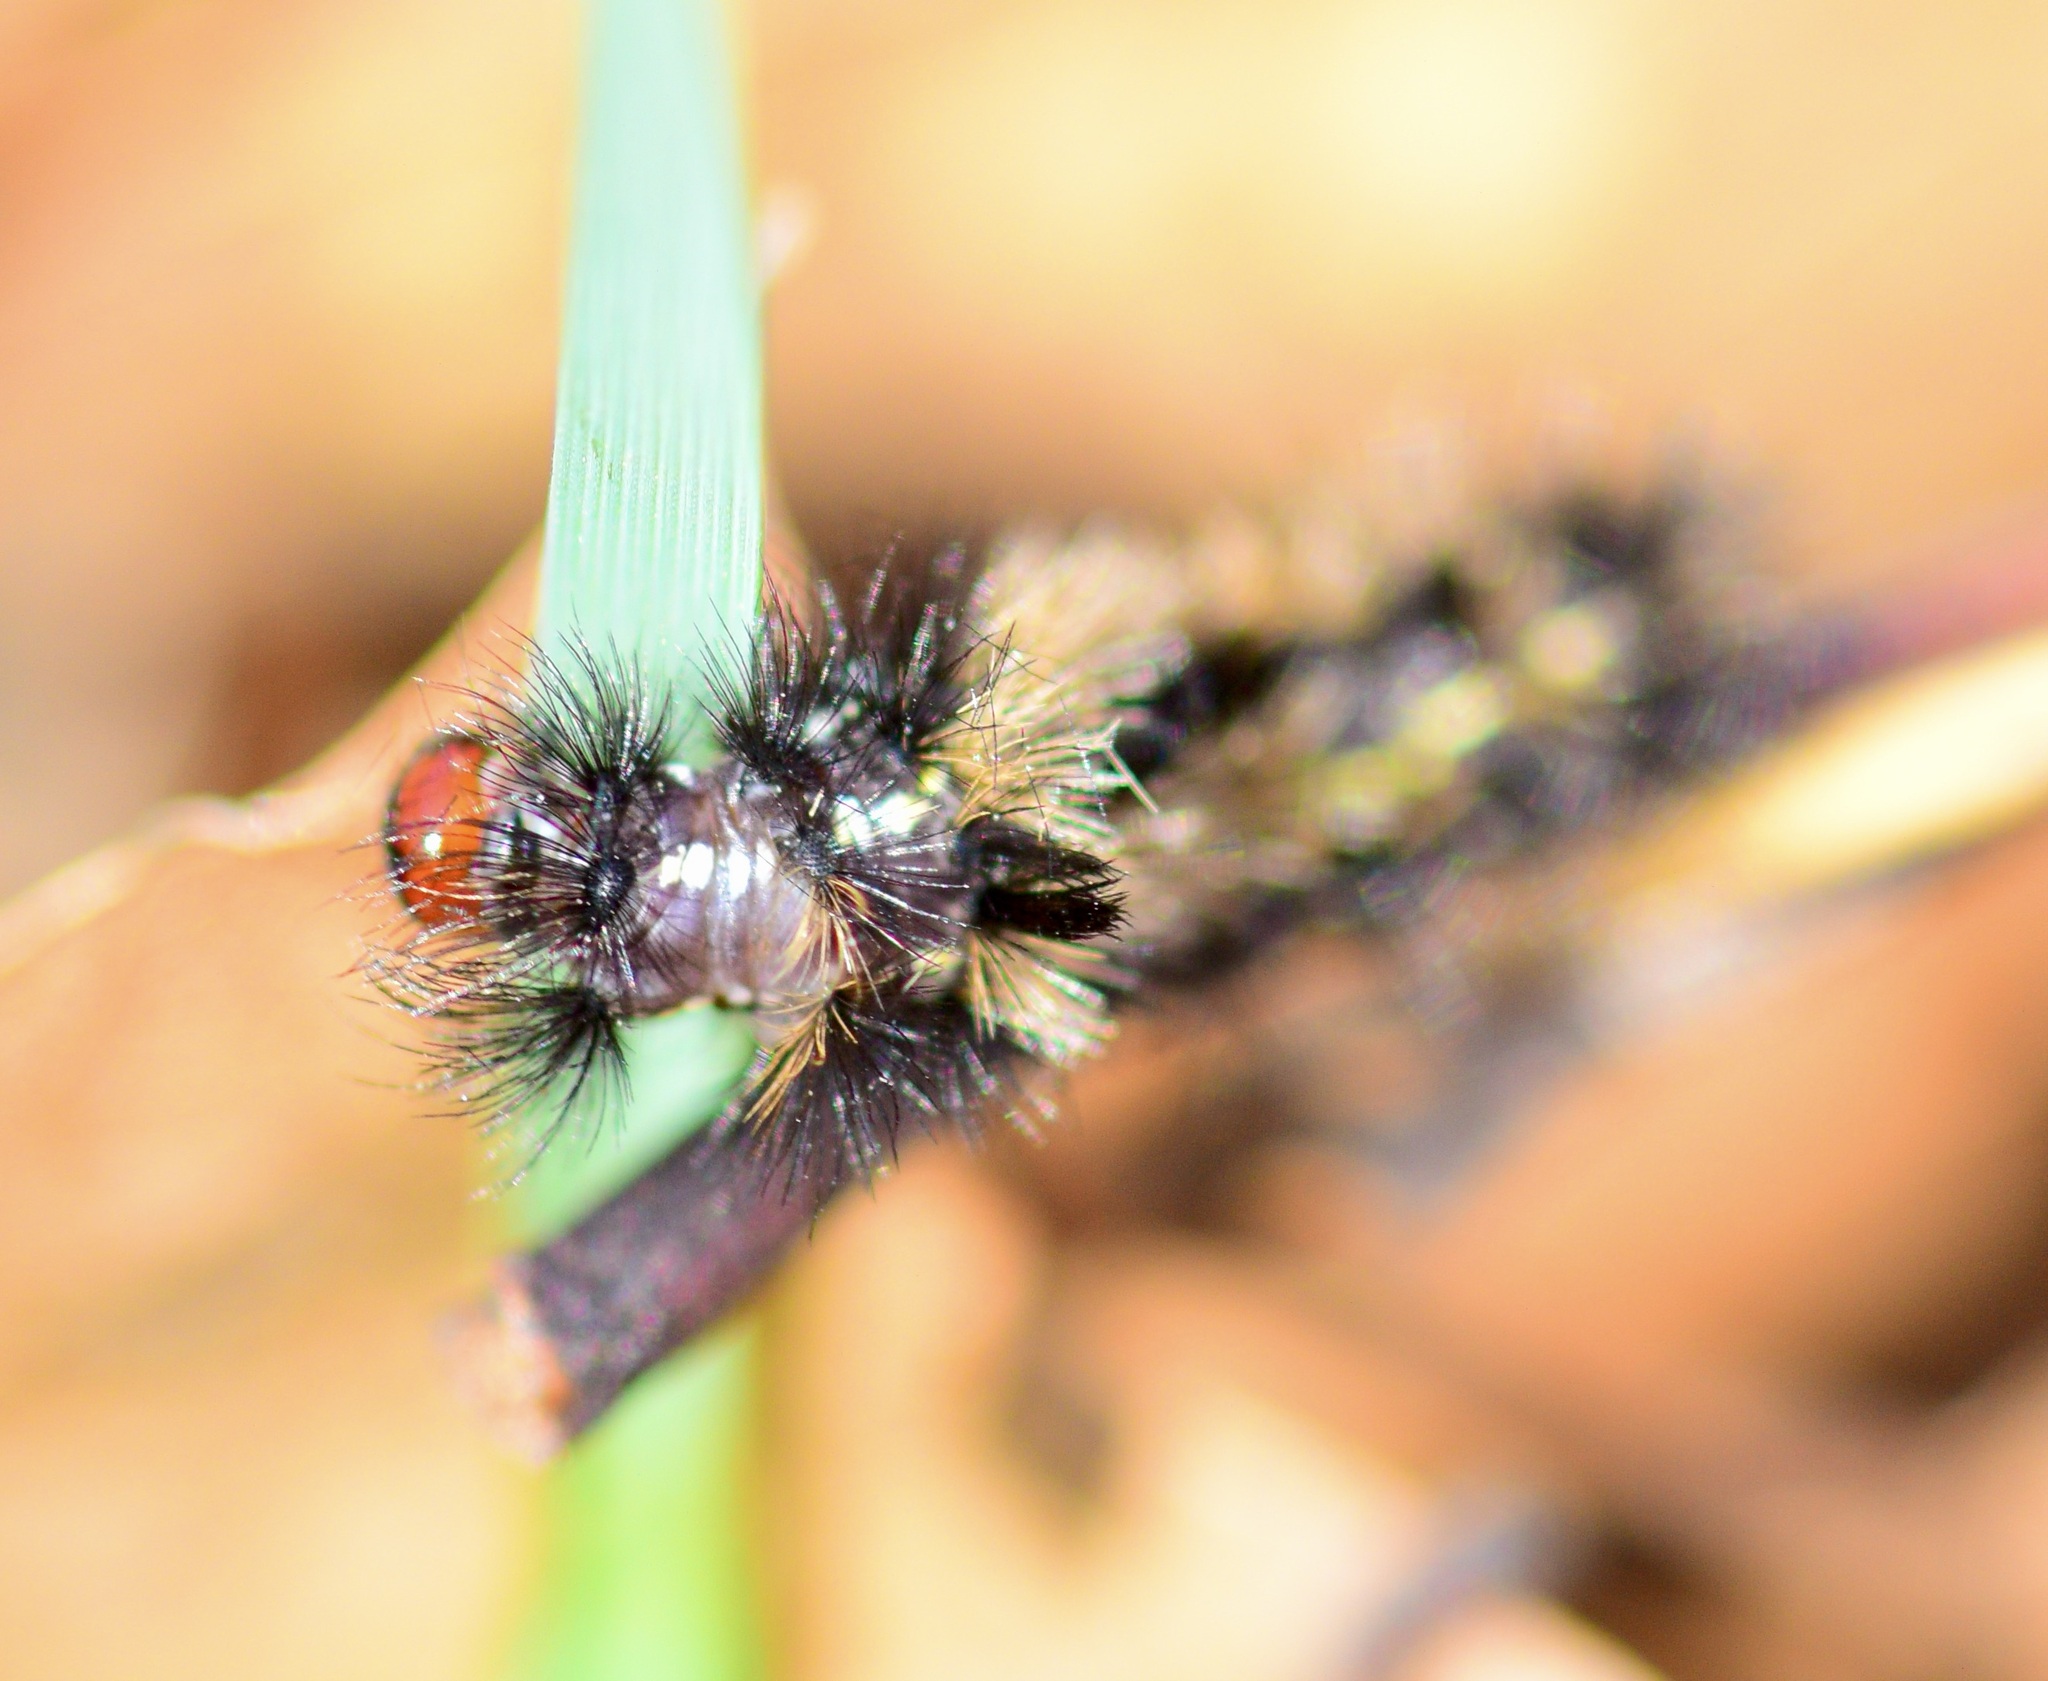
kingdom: Animalia
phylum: Arthropoda
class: Insecta
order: Lepidoptera
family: Erebidae
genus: Ctenucha
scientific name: Ctenucha virginica
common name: Virginia ctenucha moth
